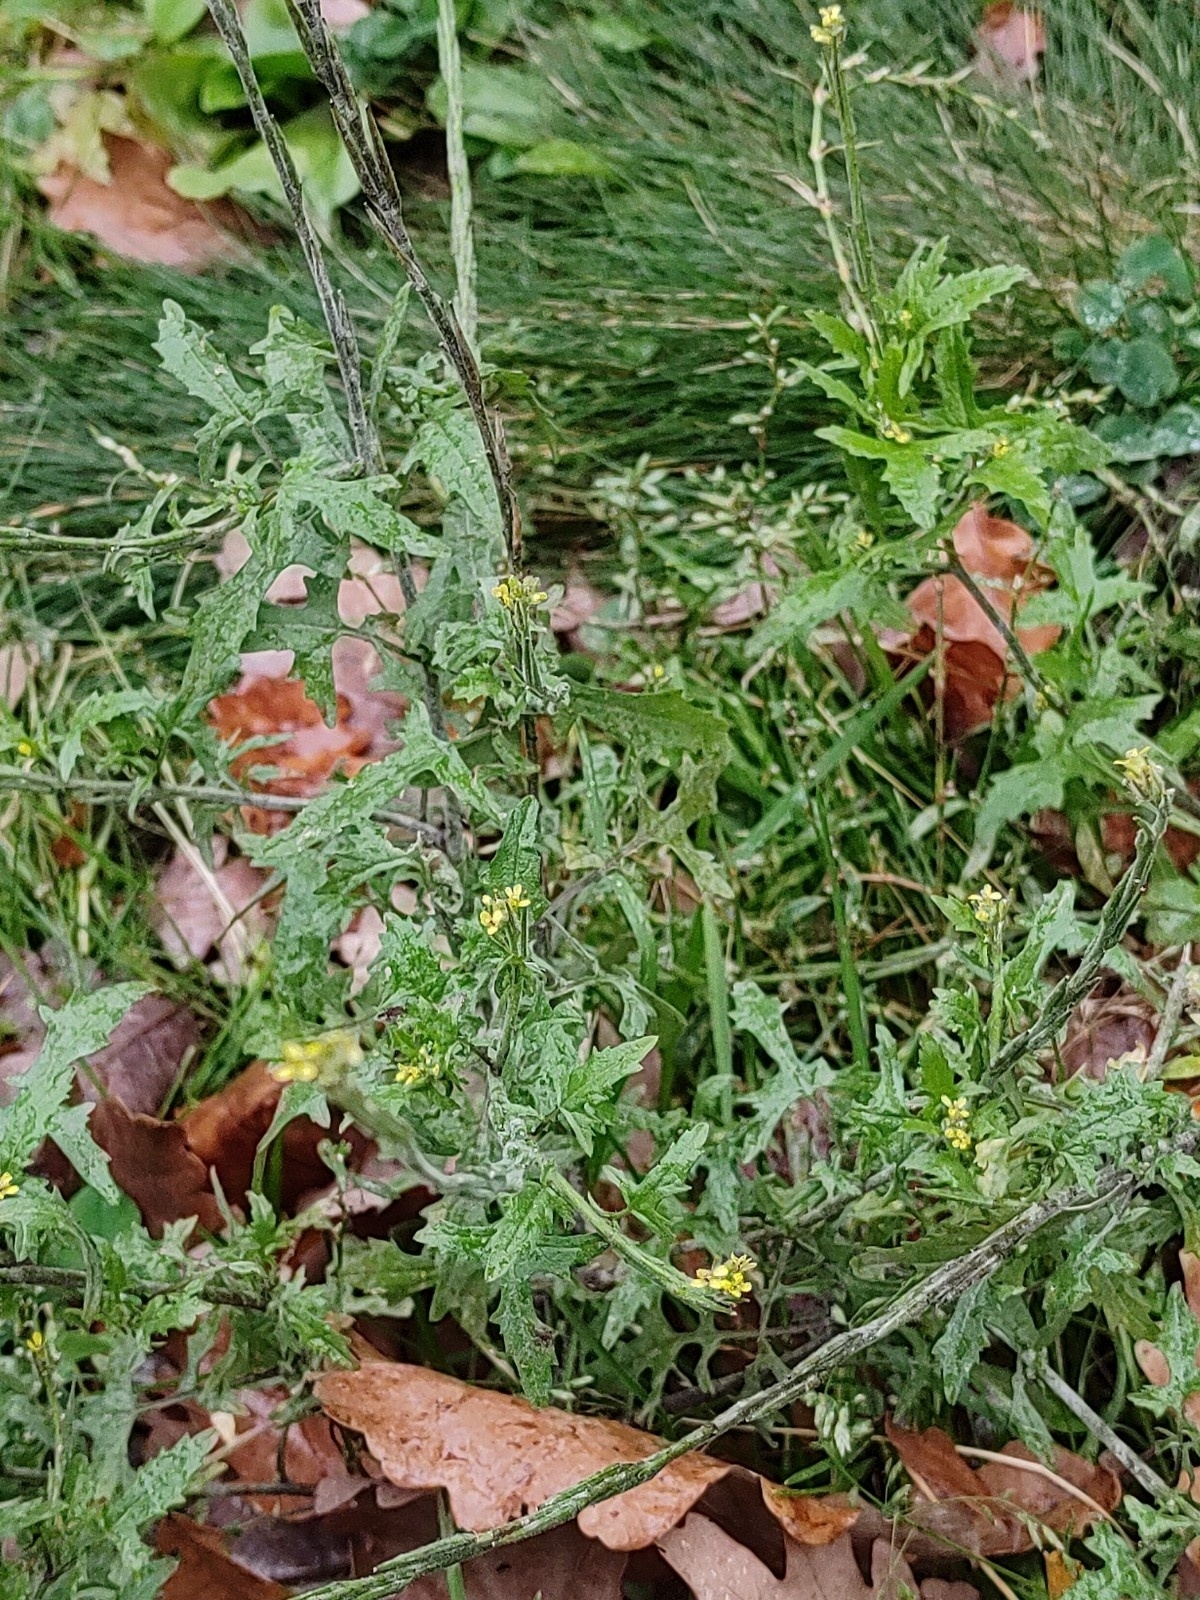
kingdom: Plantae
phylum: Tracheophyta
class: Magnoliopsida
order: Brassicales
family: Brassicaceae
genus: Sisymbrium
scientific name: Sisymbrium officinale
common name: Hedge mustard
